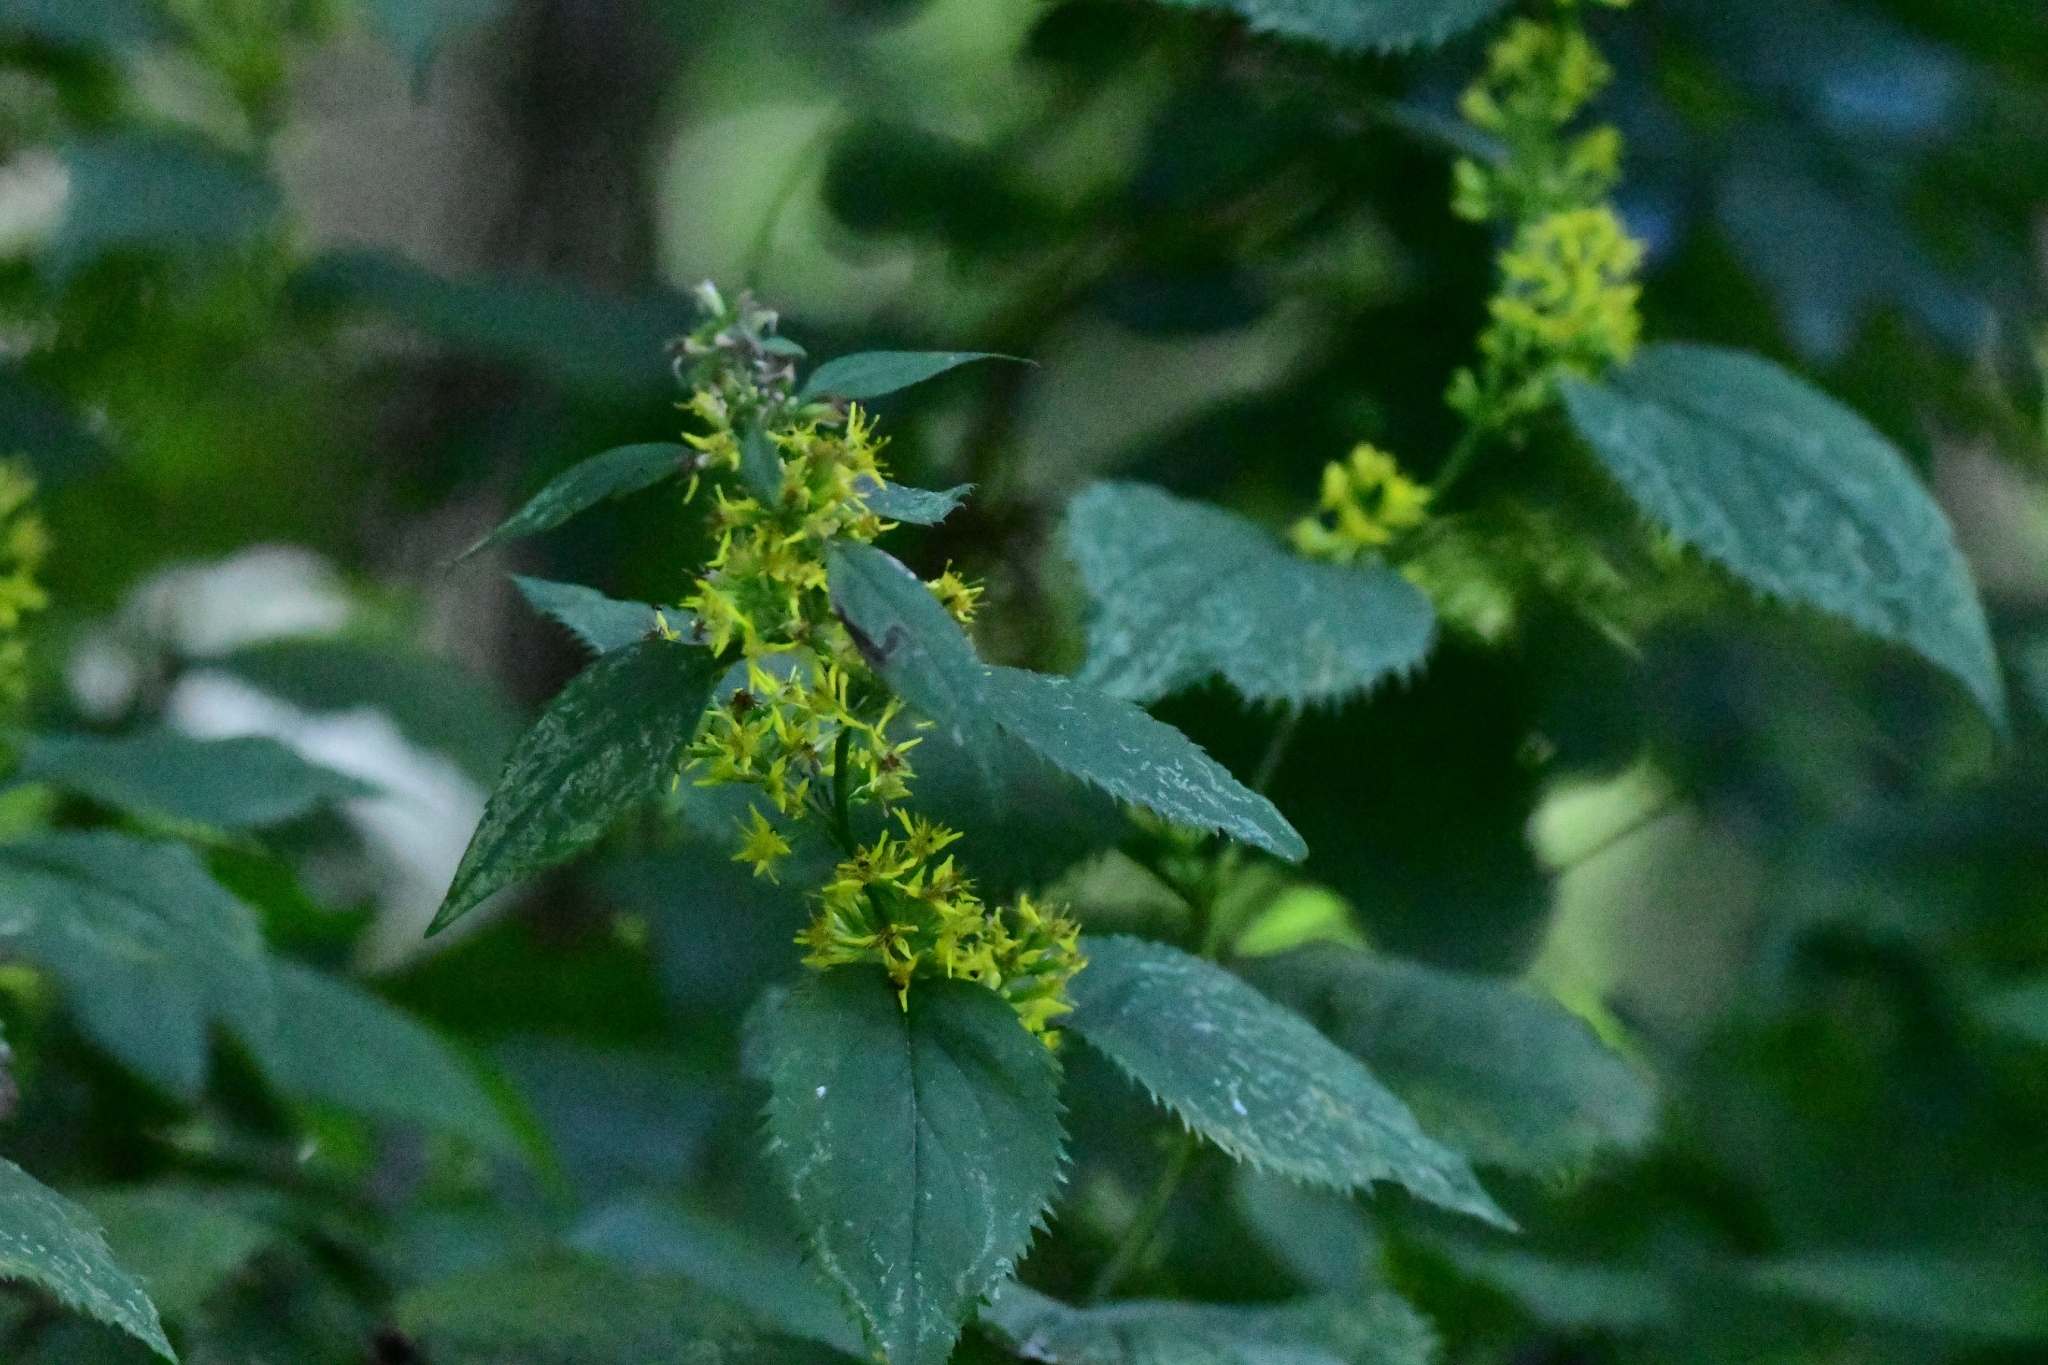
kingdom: Plantae
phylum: Tracheophyta
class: Magnoliopsida
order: Asterales
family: Asteraceae
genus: Solidago
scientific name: Solidago flexicaulis
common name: Zig-zag goldenrod
